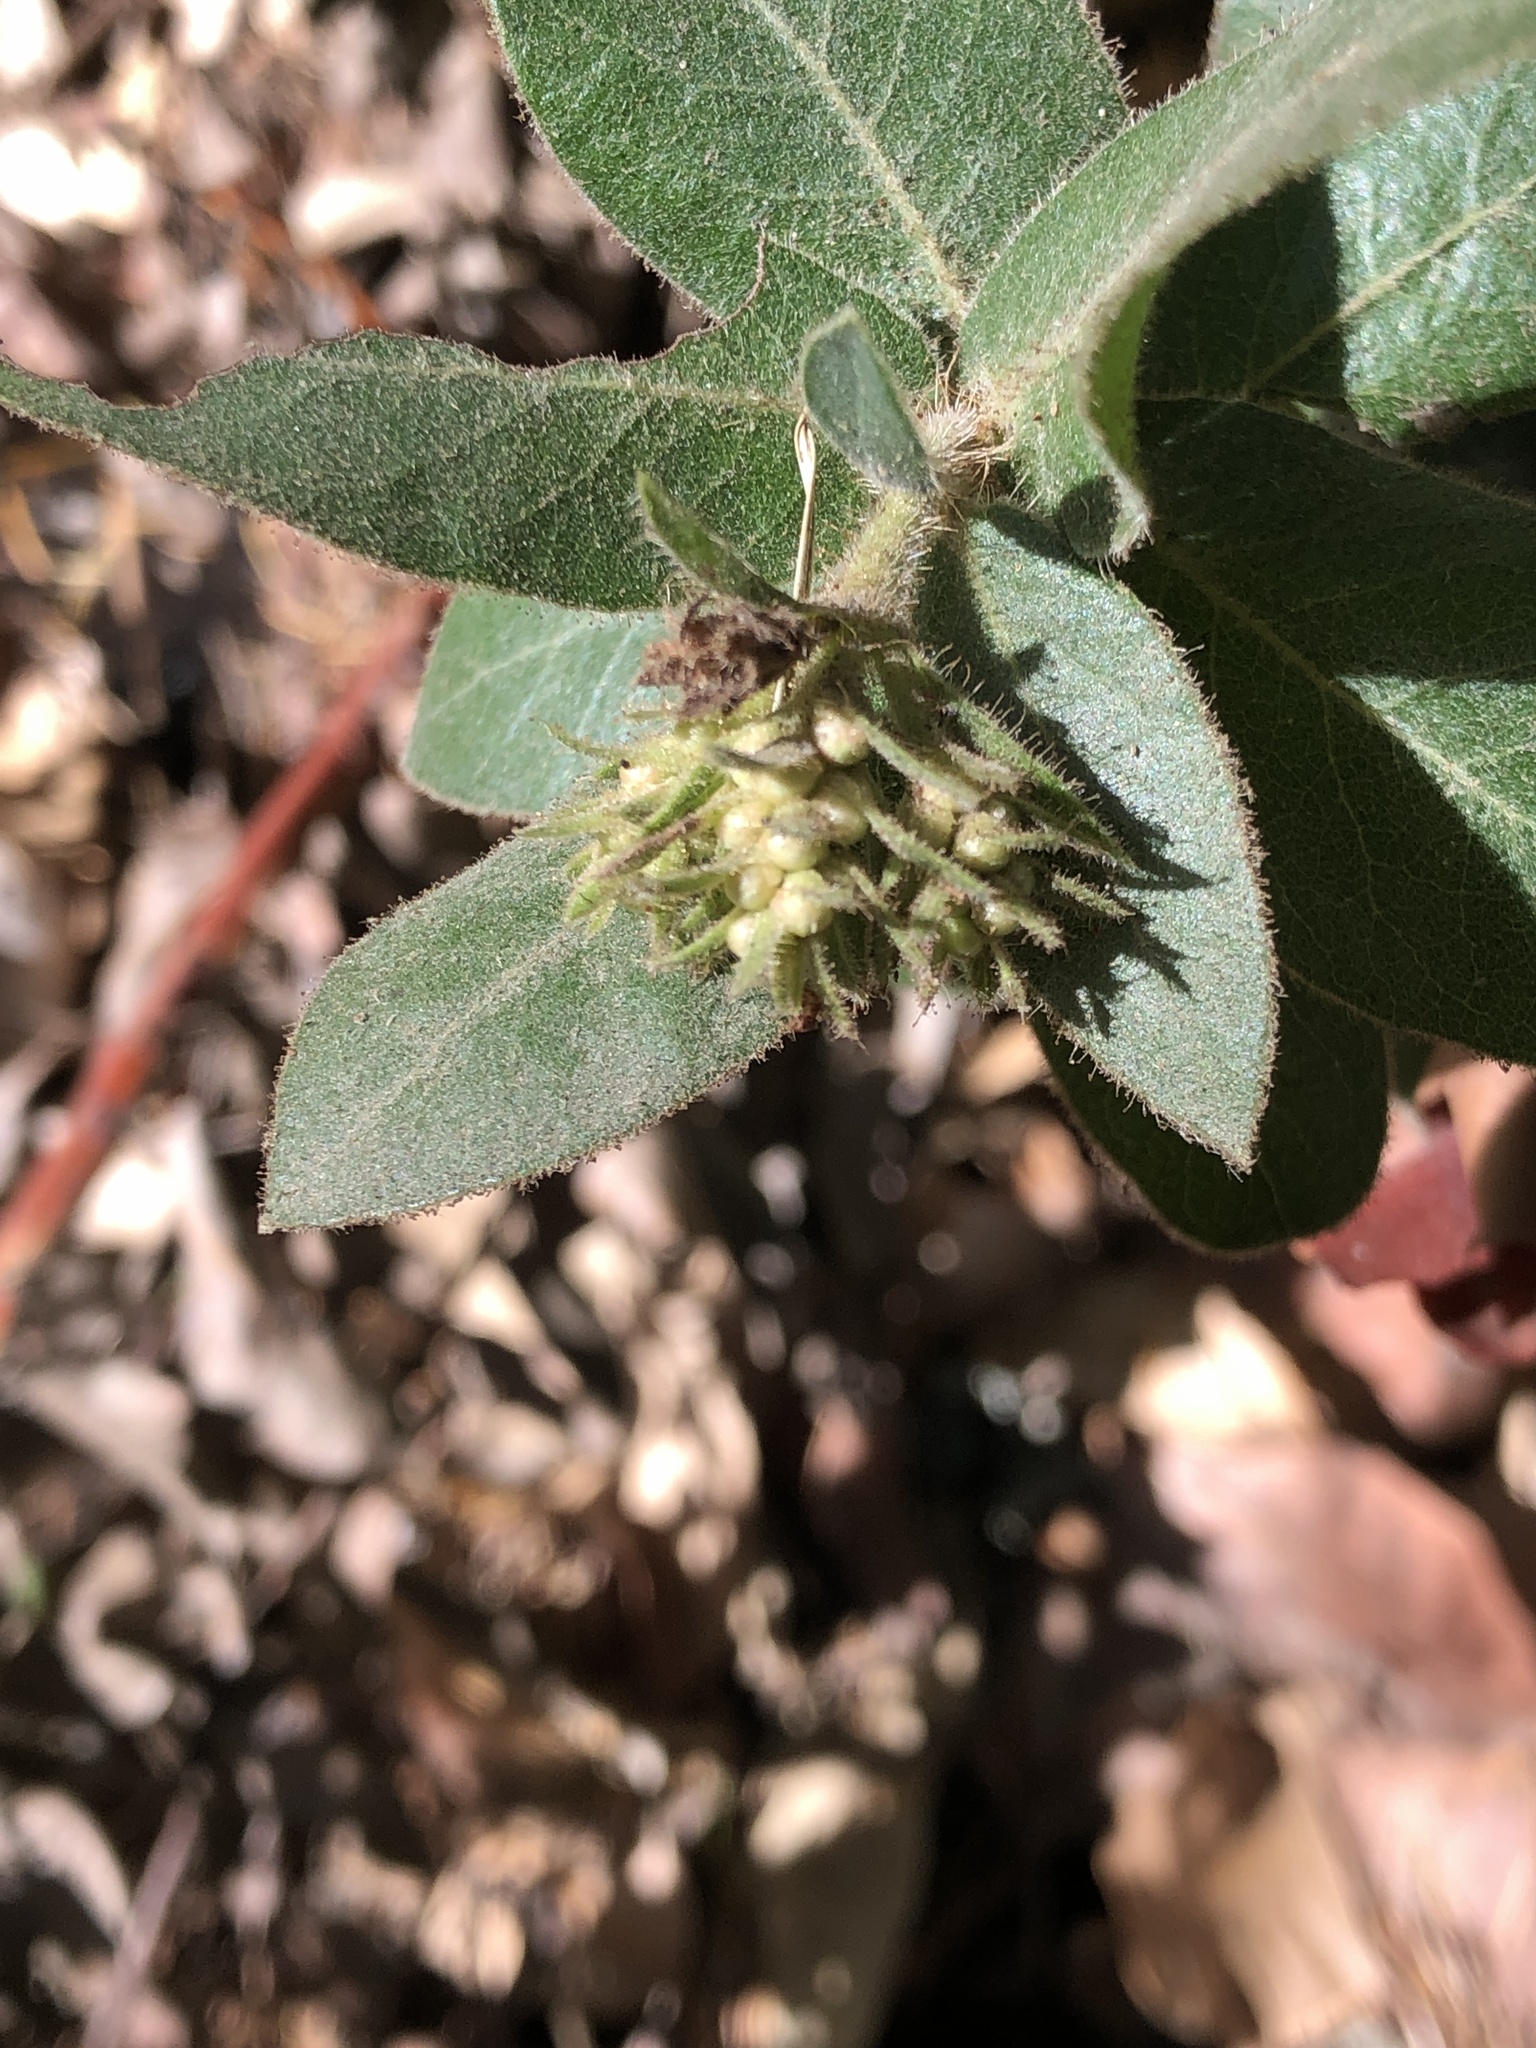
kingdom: Plantae
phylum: Tracheophyta
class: Magnoliopsida
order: Ericales
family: Ericaceae
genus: Arctostaphylos
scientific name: Arctostaphylos regismontana
